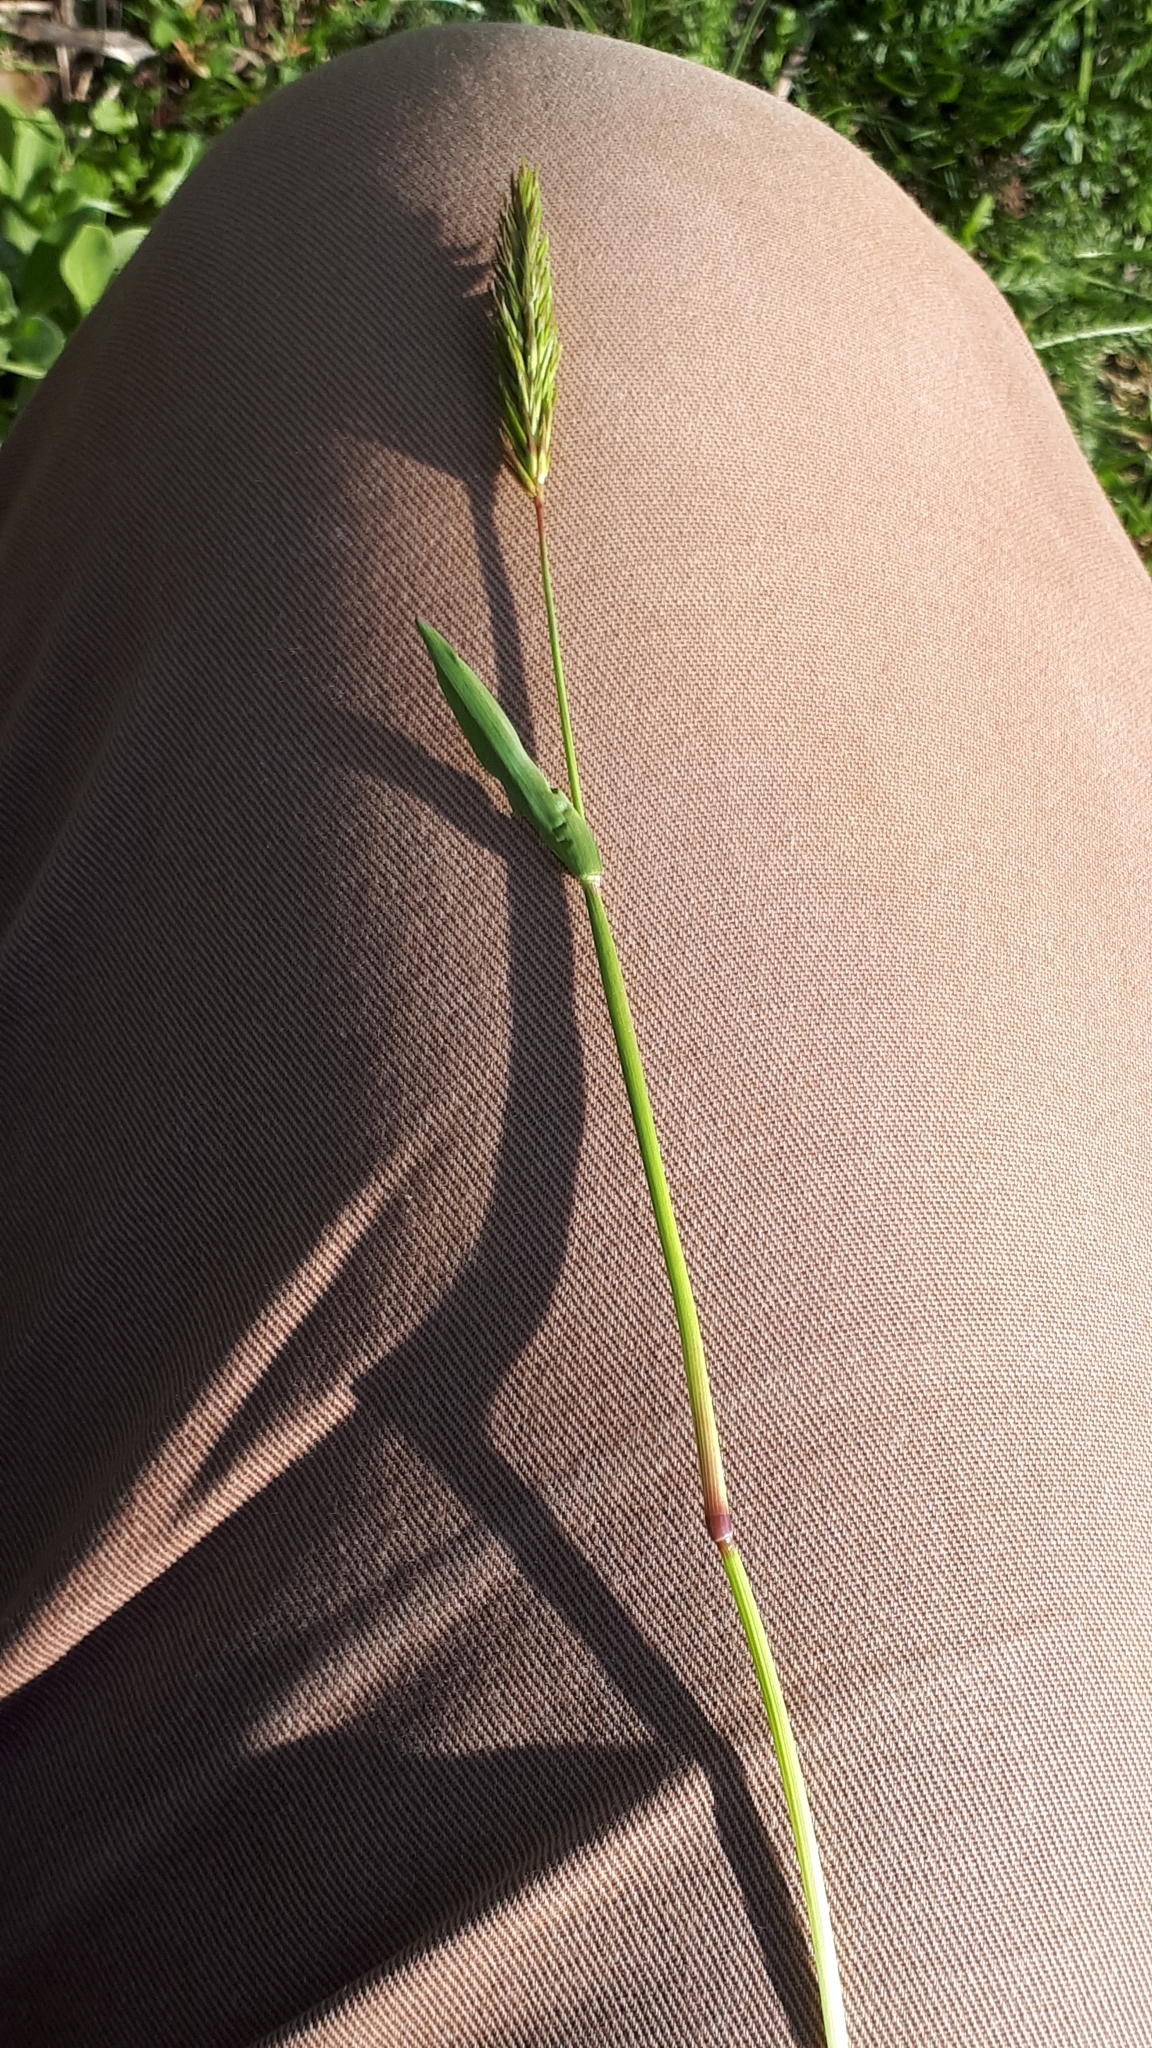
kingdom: Plantae
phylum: Tracheophyta
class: Liliopsida
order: Poales
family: Poaceae
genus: Anthoxanthum
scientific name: Anthoxanthum odoratum
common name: Sweet vernalgrass
